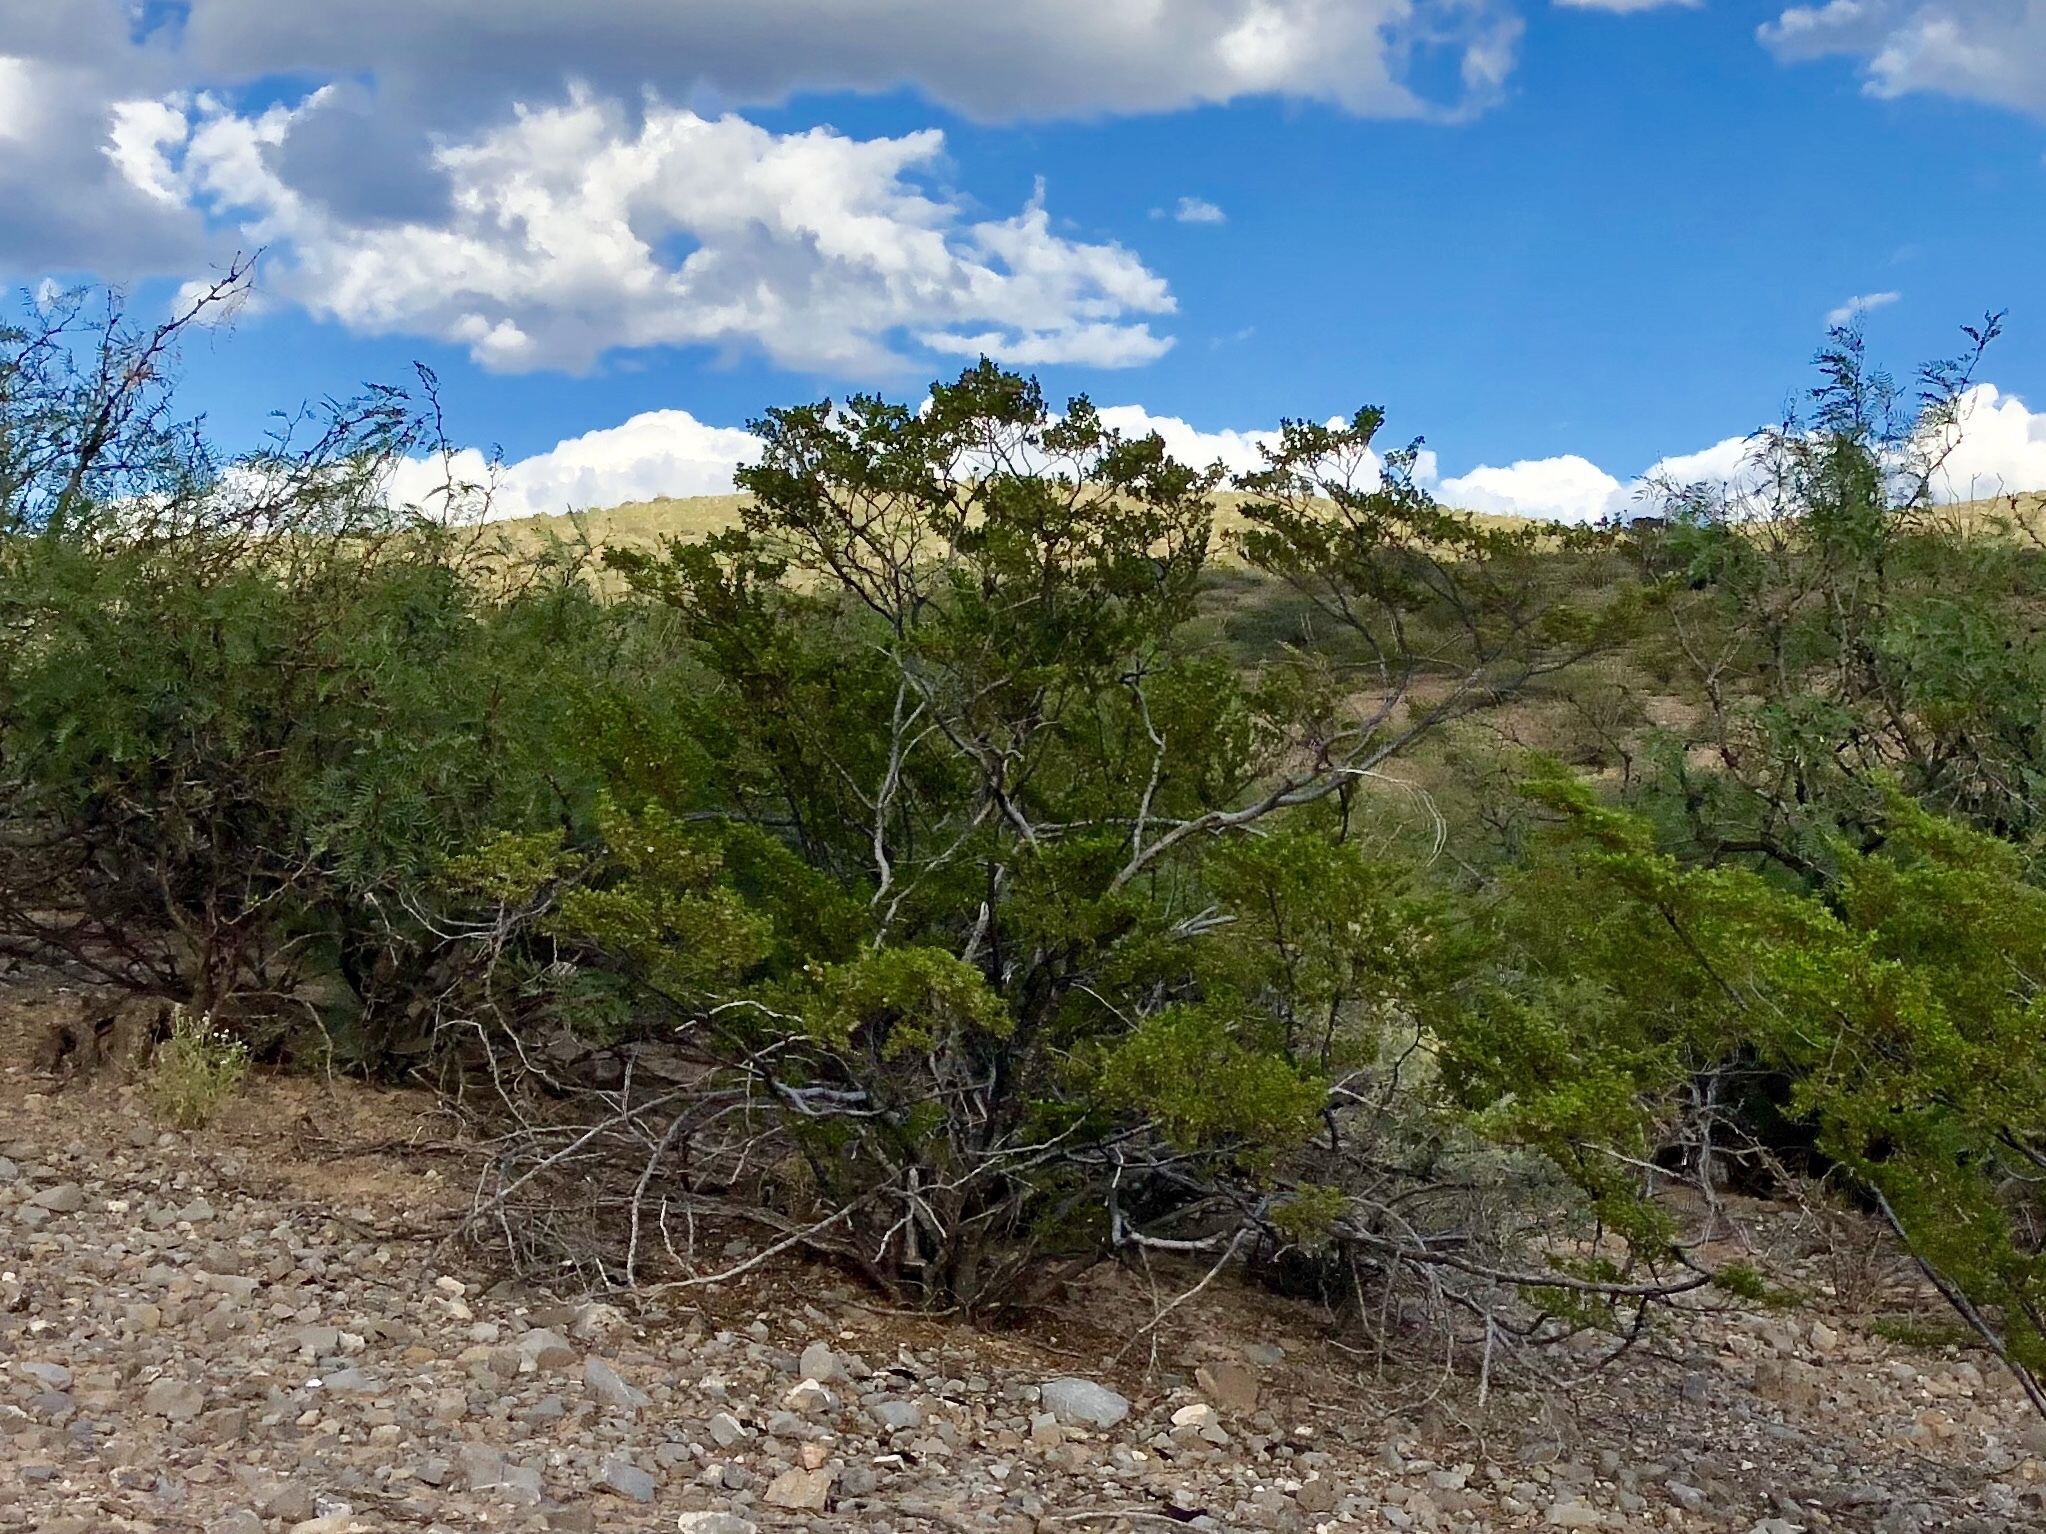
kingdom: Plantae
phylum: Tracheophyta
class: Magnoliopsida
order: Zygophyllales
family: Zygophyllaceae
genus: Larrea
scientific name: Larrea tridentata
